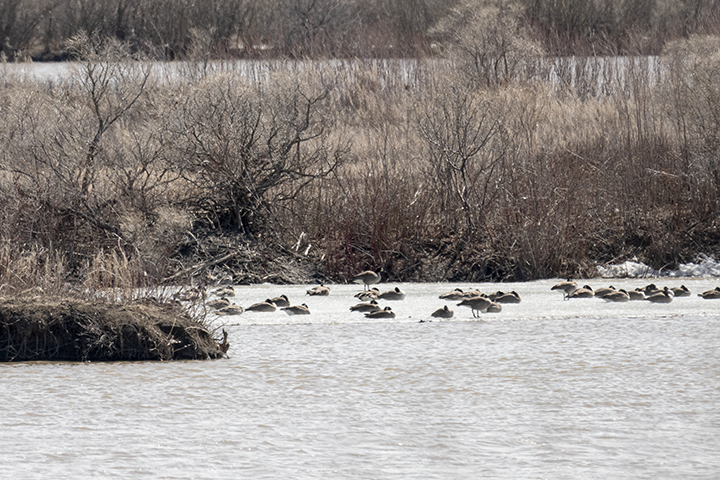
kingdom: Animalia
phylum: Chordata
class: Aves
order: Anseriformes
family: Anatidae
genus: Branta
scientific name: Branta canadensis
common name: Canada goose
